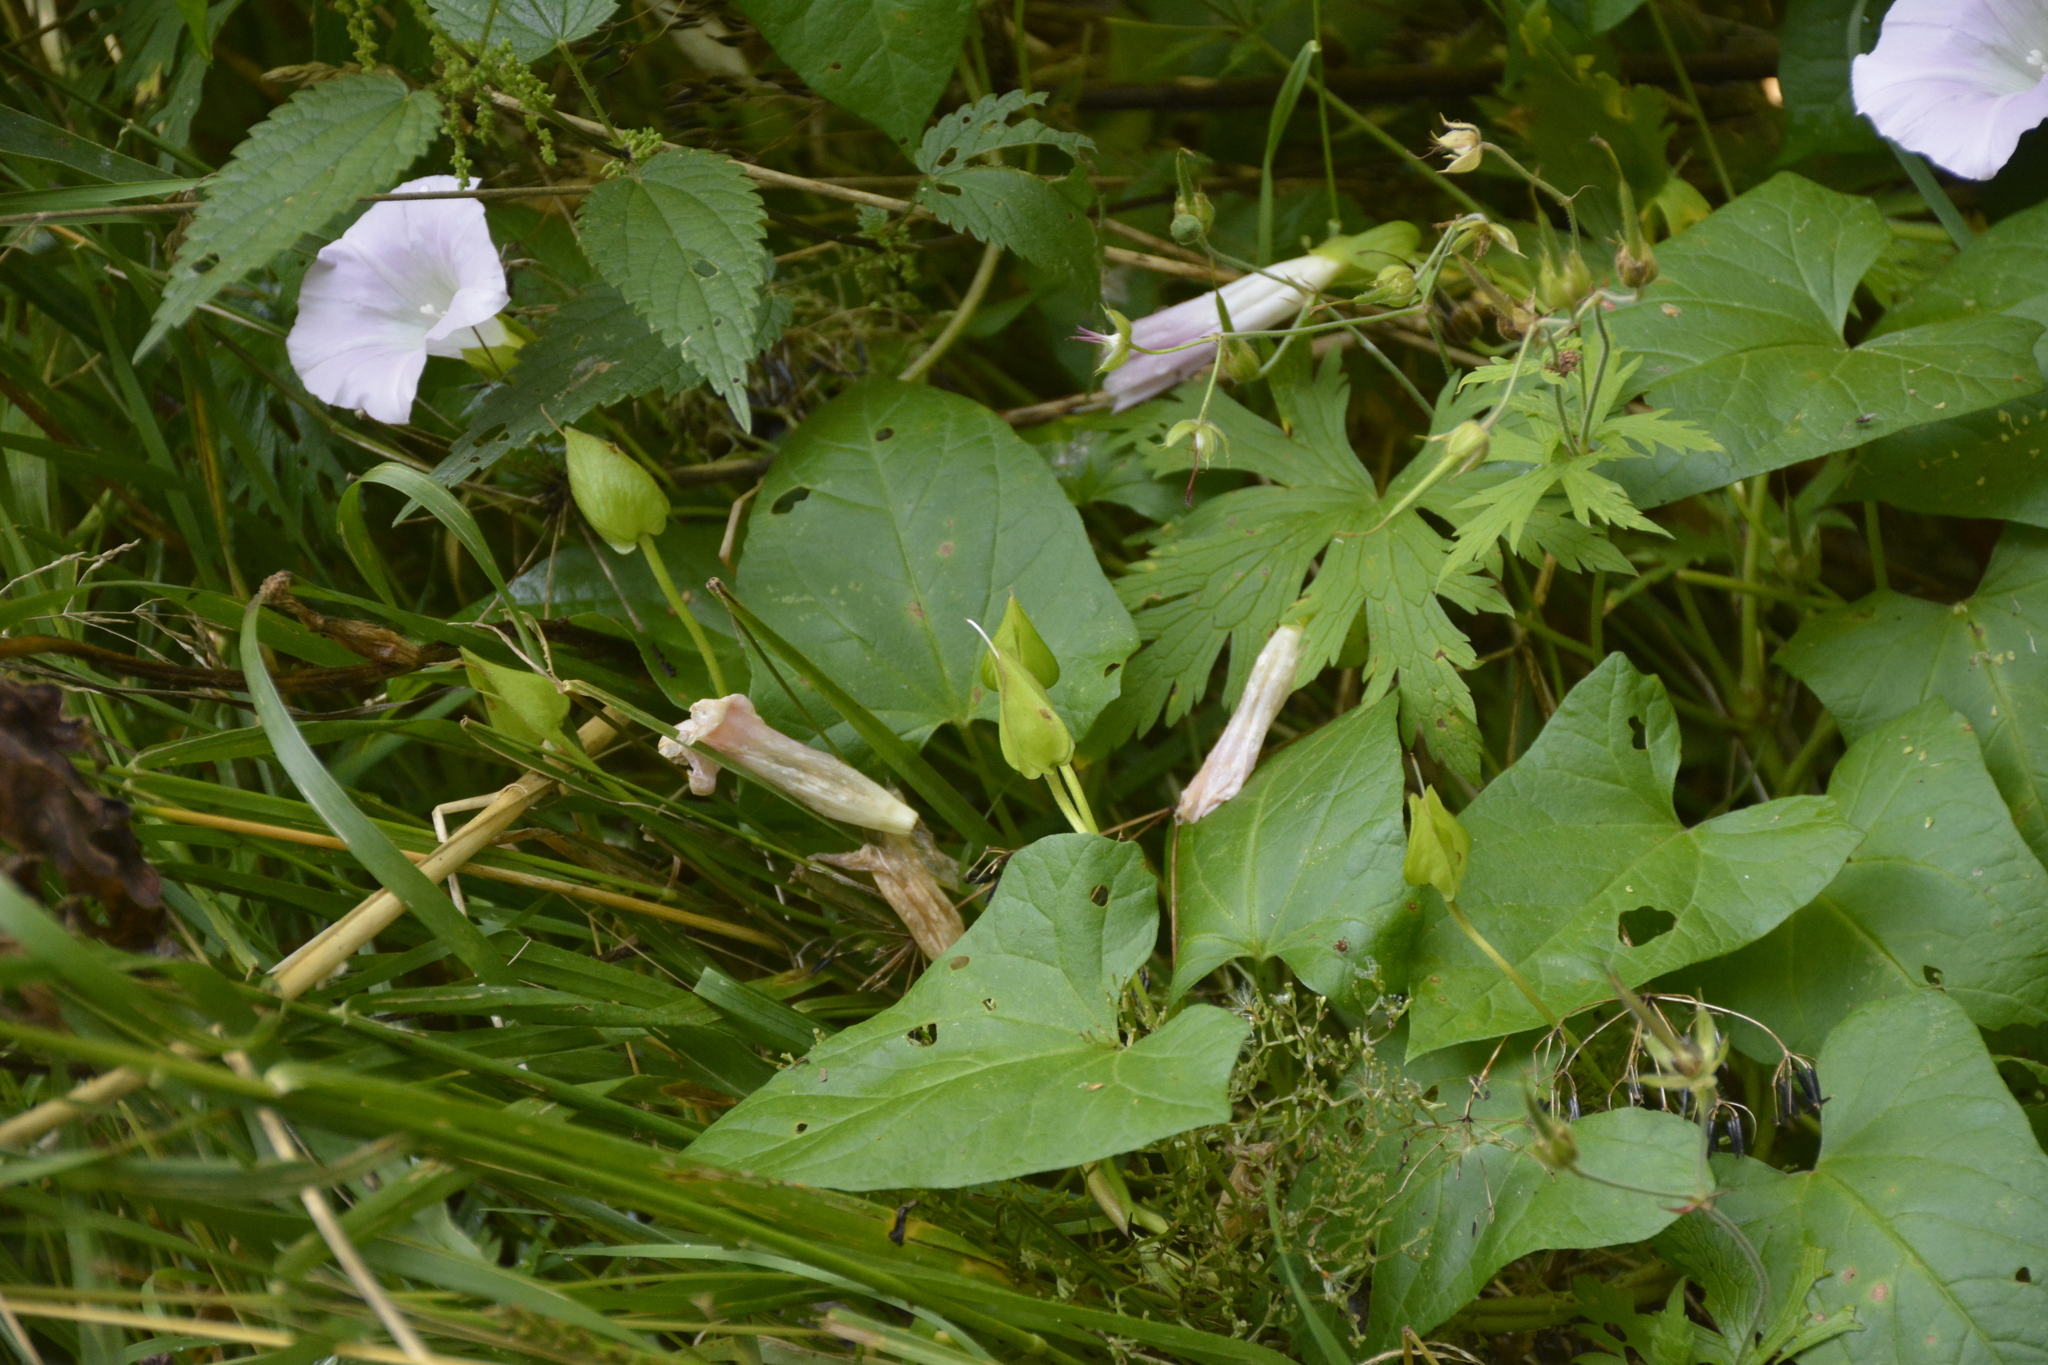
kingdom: Plantae
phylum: Tracheophyta
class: Magnoliopsida
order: Solanales
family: Convolvulaceae
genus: Calystegia
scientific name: Calystegia sepium
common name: Hedge bindweed
